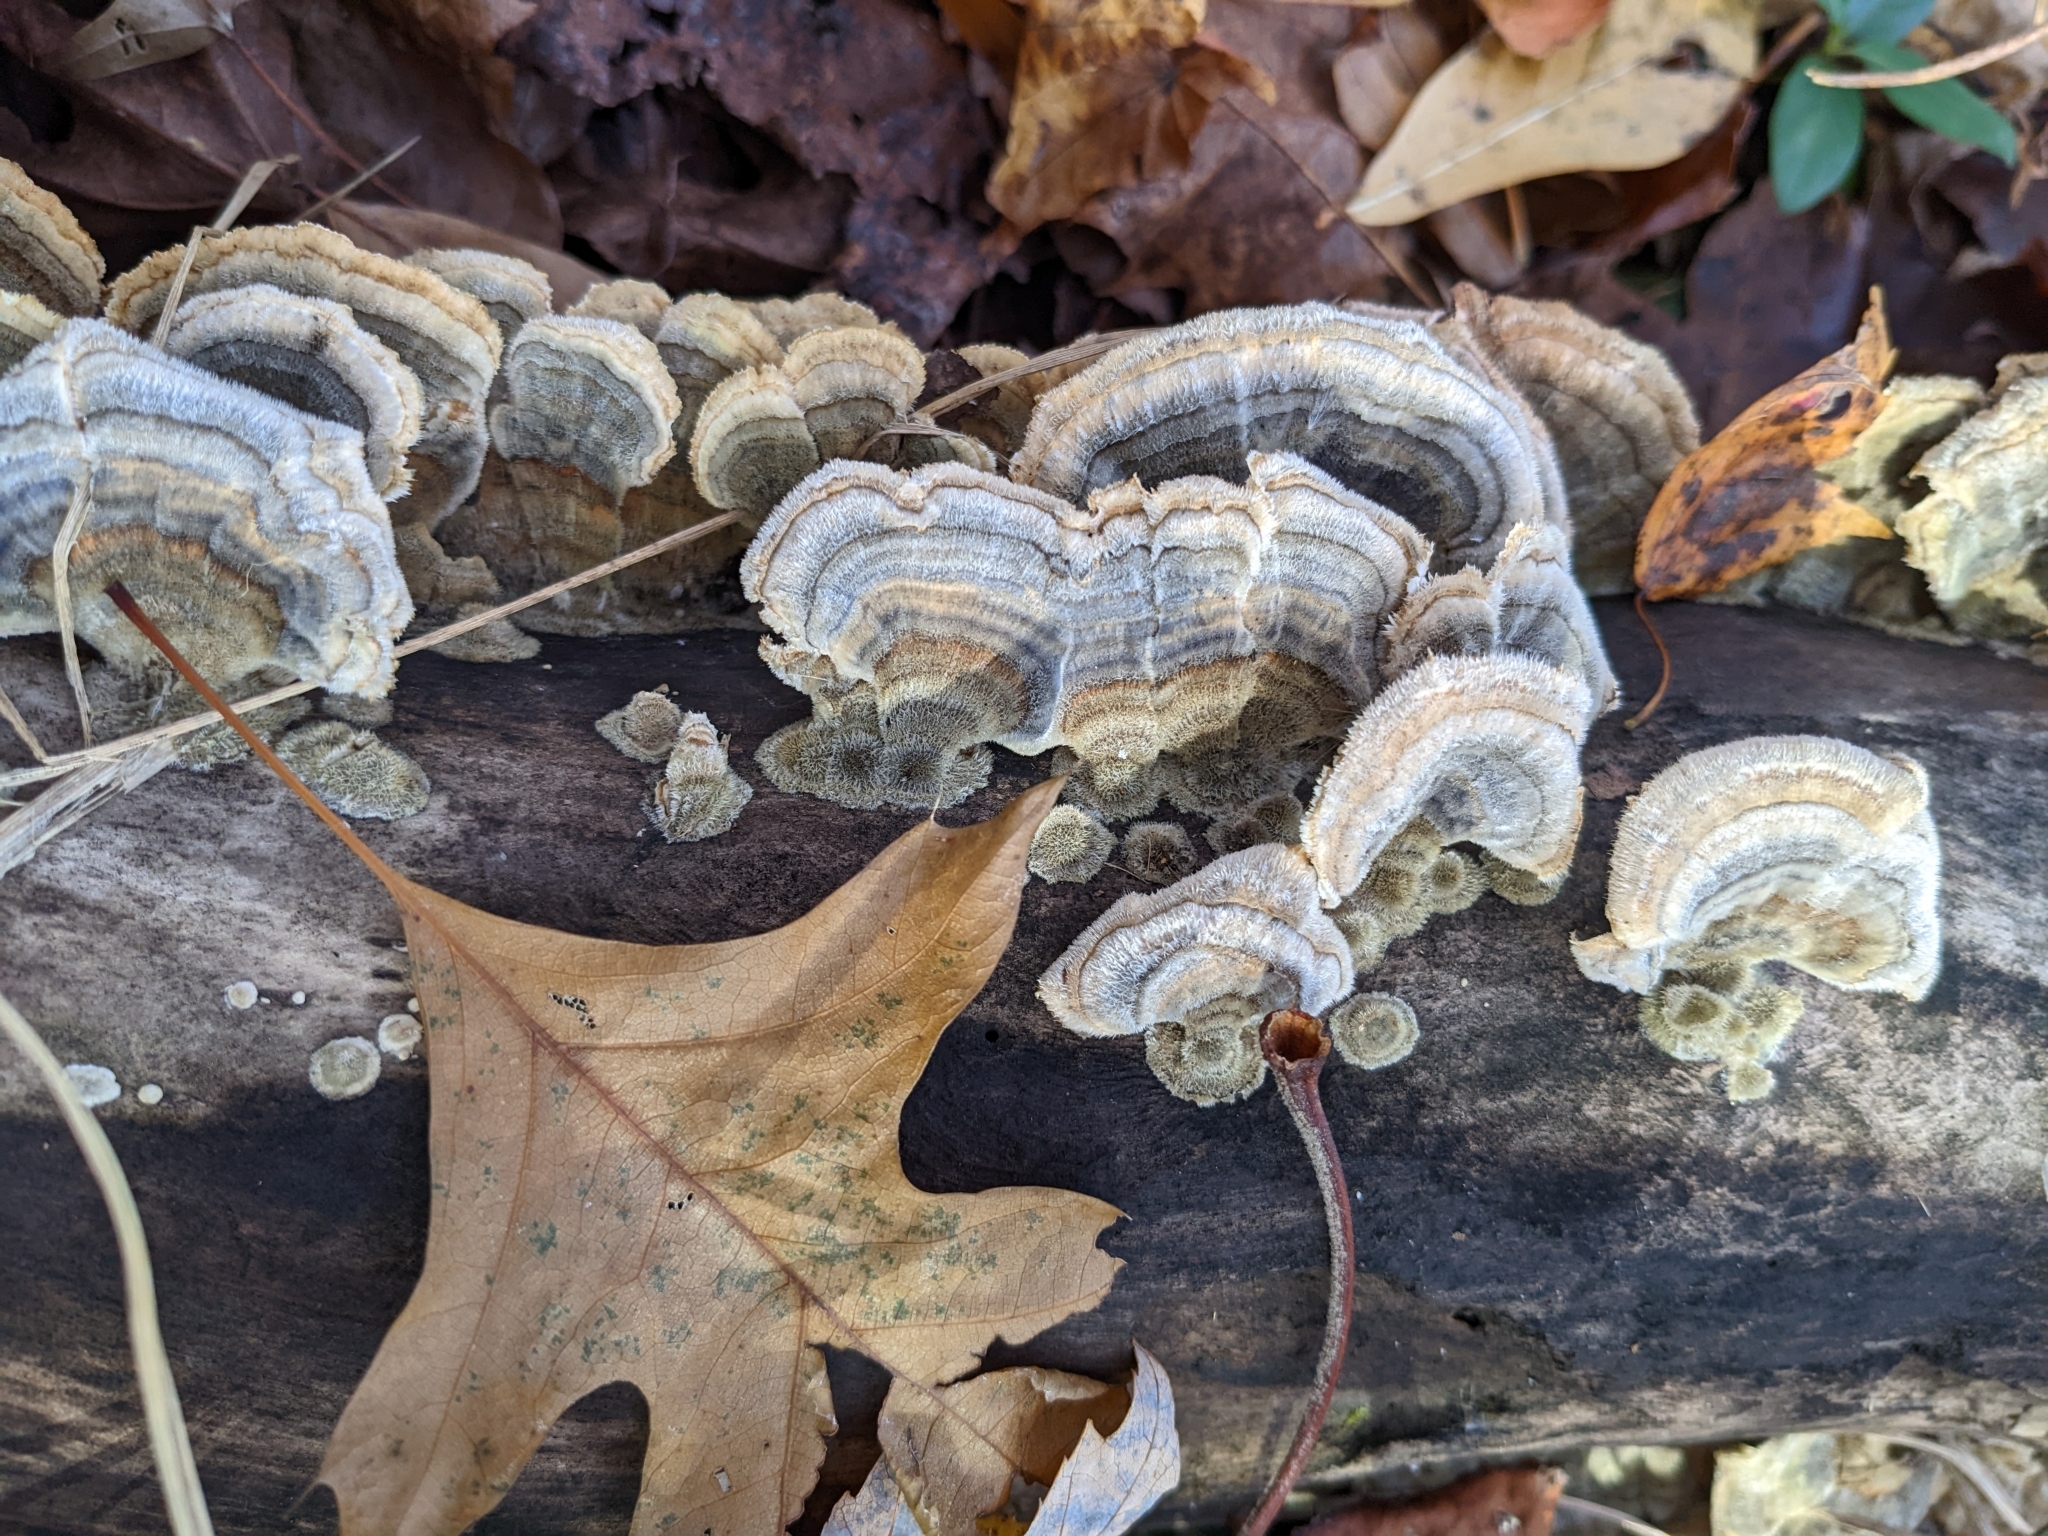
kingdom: Fungi
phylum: Basidiomycota
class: Agaricomycetes
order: Polyporales
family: Polyporaceae
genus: Trametes
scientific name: Trametes versicolor
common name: Turkeytail
